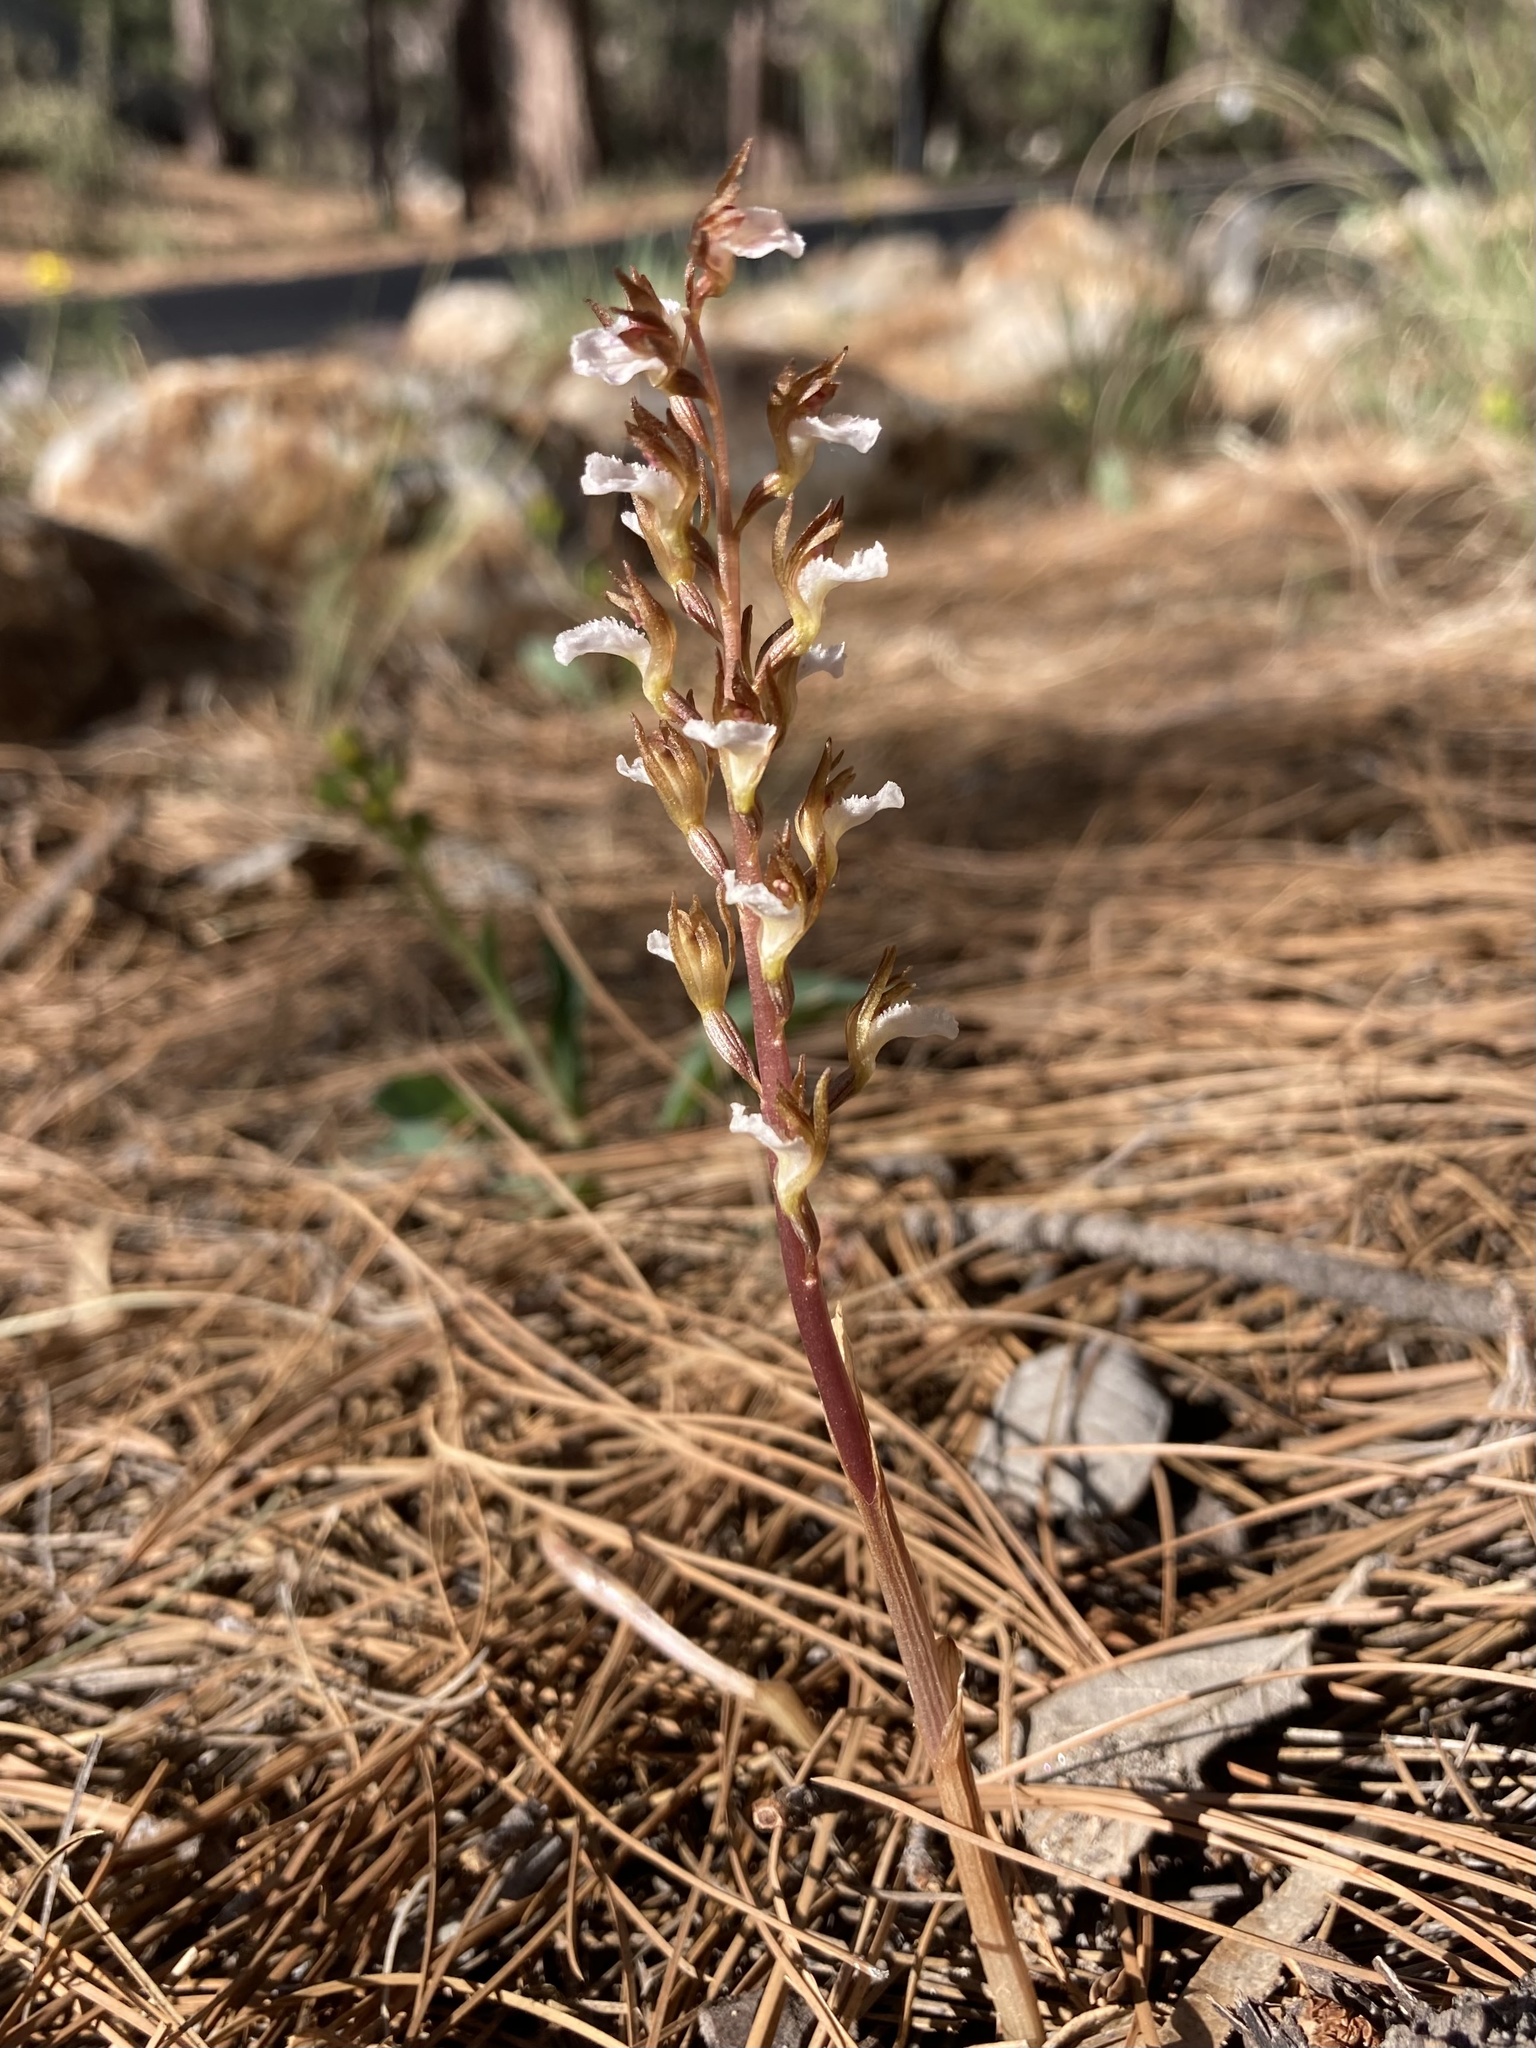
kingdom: Plantae
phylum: Tracheophyta
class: Liliopsida
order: Asparagales
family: Orchidaceae
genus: Corallorhiza
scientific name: Corallorhiza wisteriana
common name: Spring coralroot
